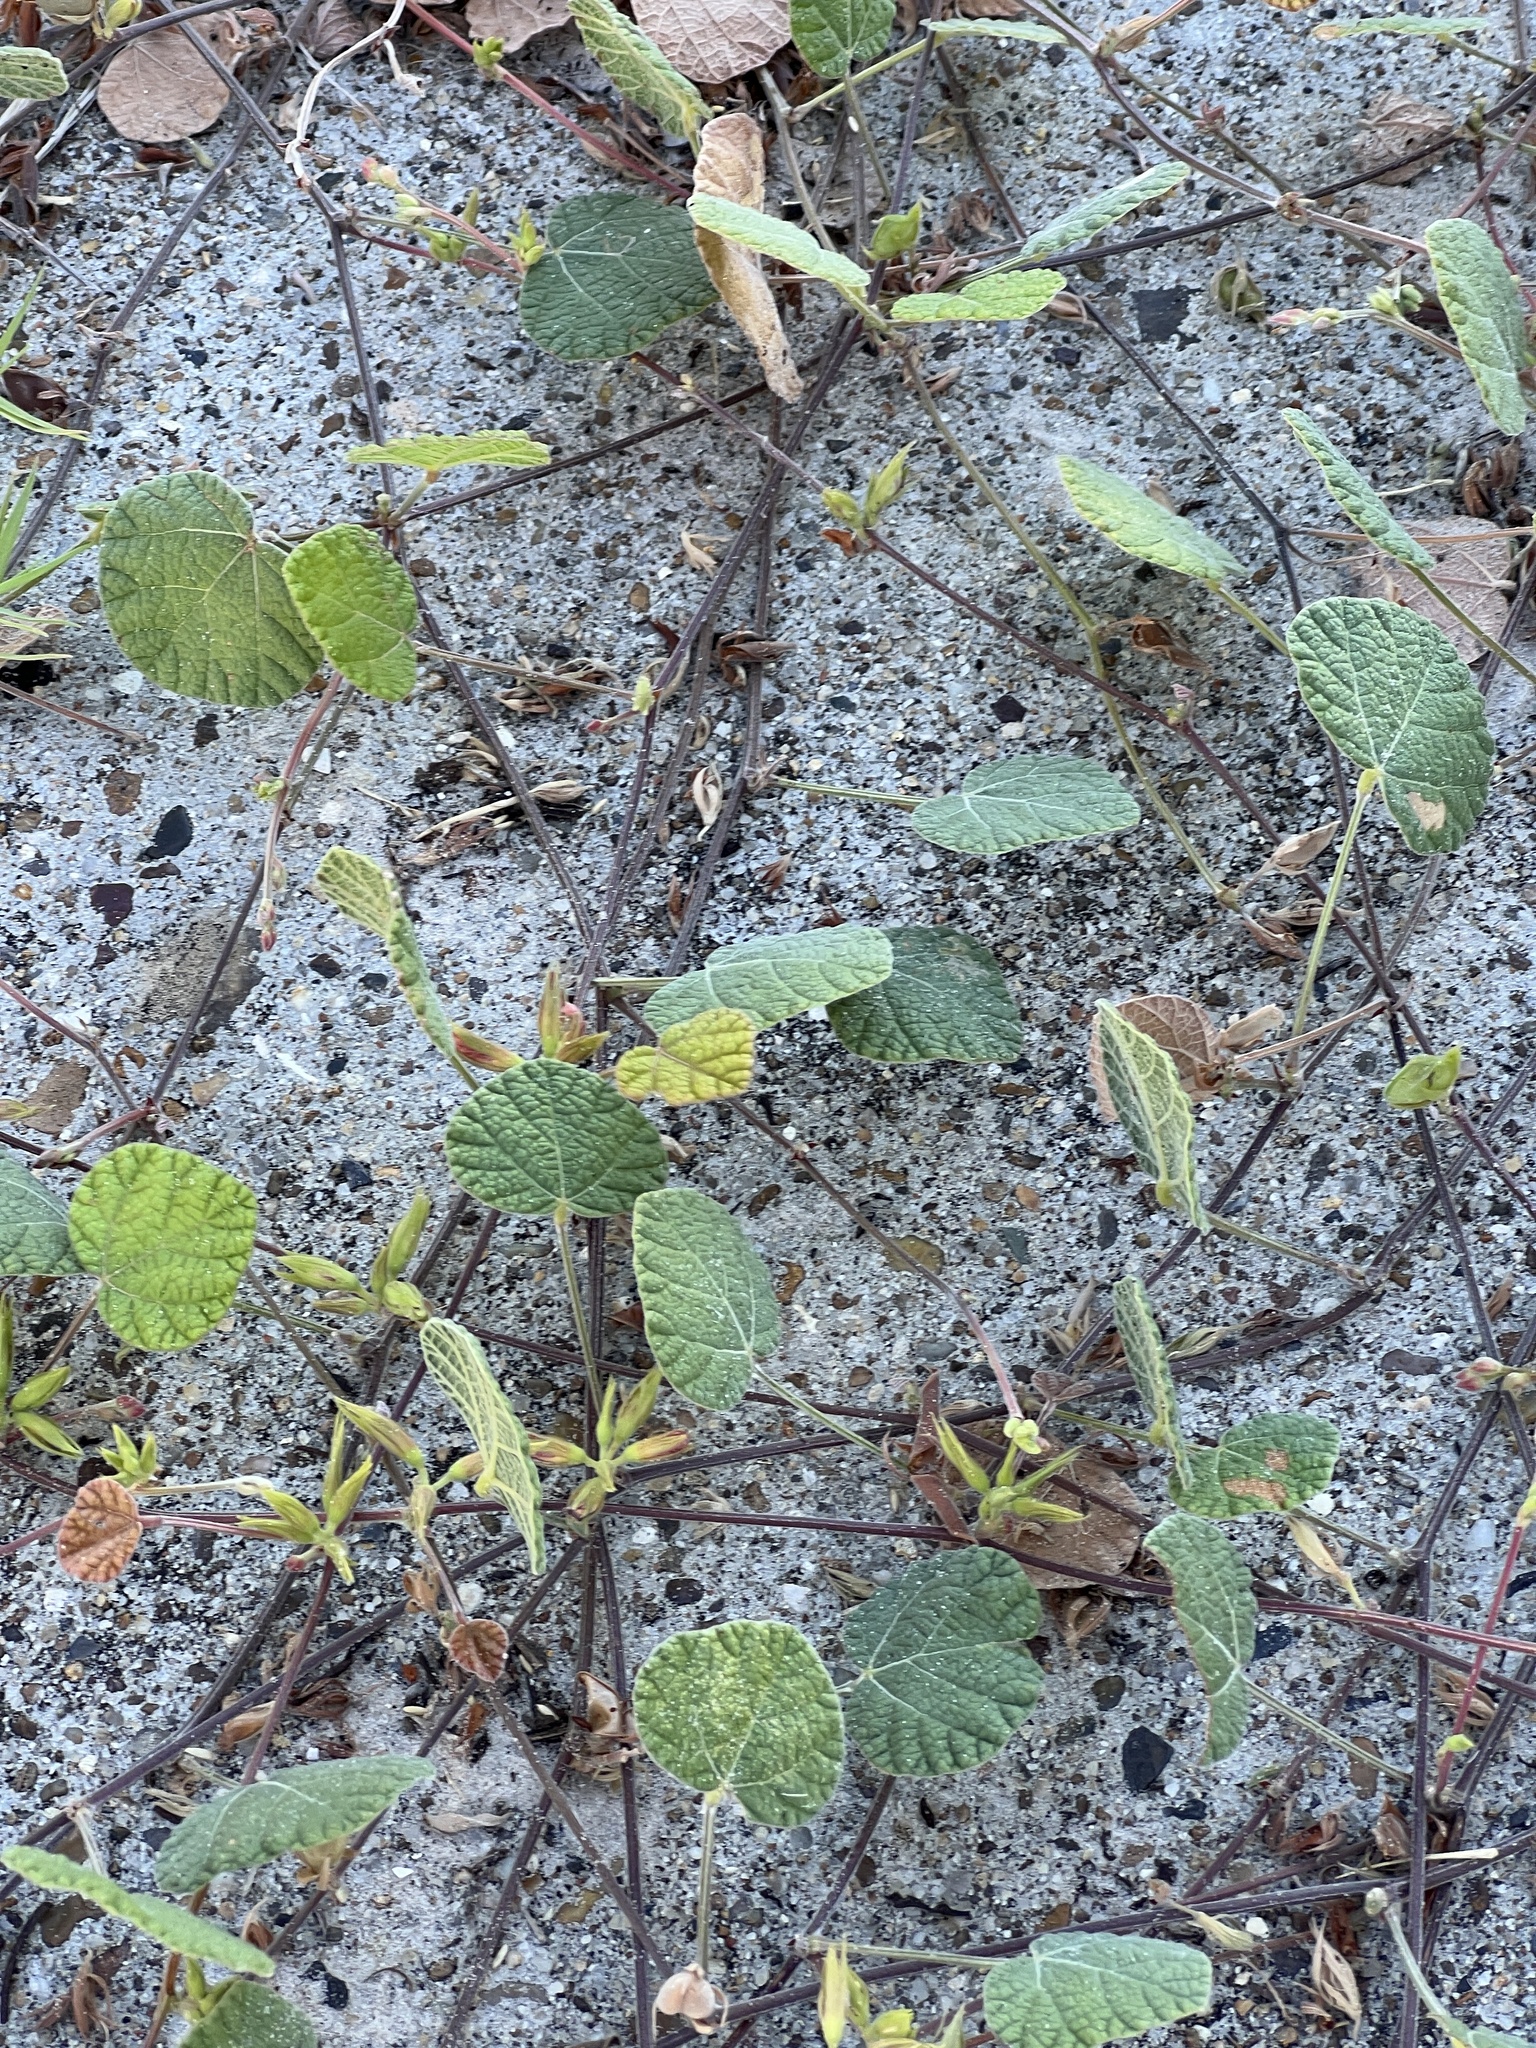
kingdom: Plantae
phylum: Tracheophyta
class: Magnoliopsida
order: Fabales
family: Fabaceae
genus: Rhynchosia
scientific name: Rhynchosia americana
